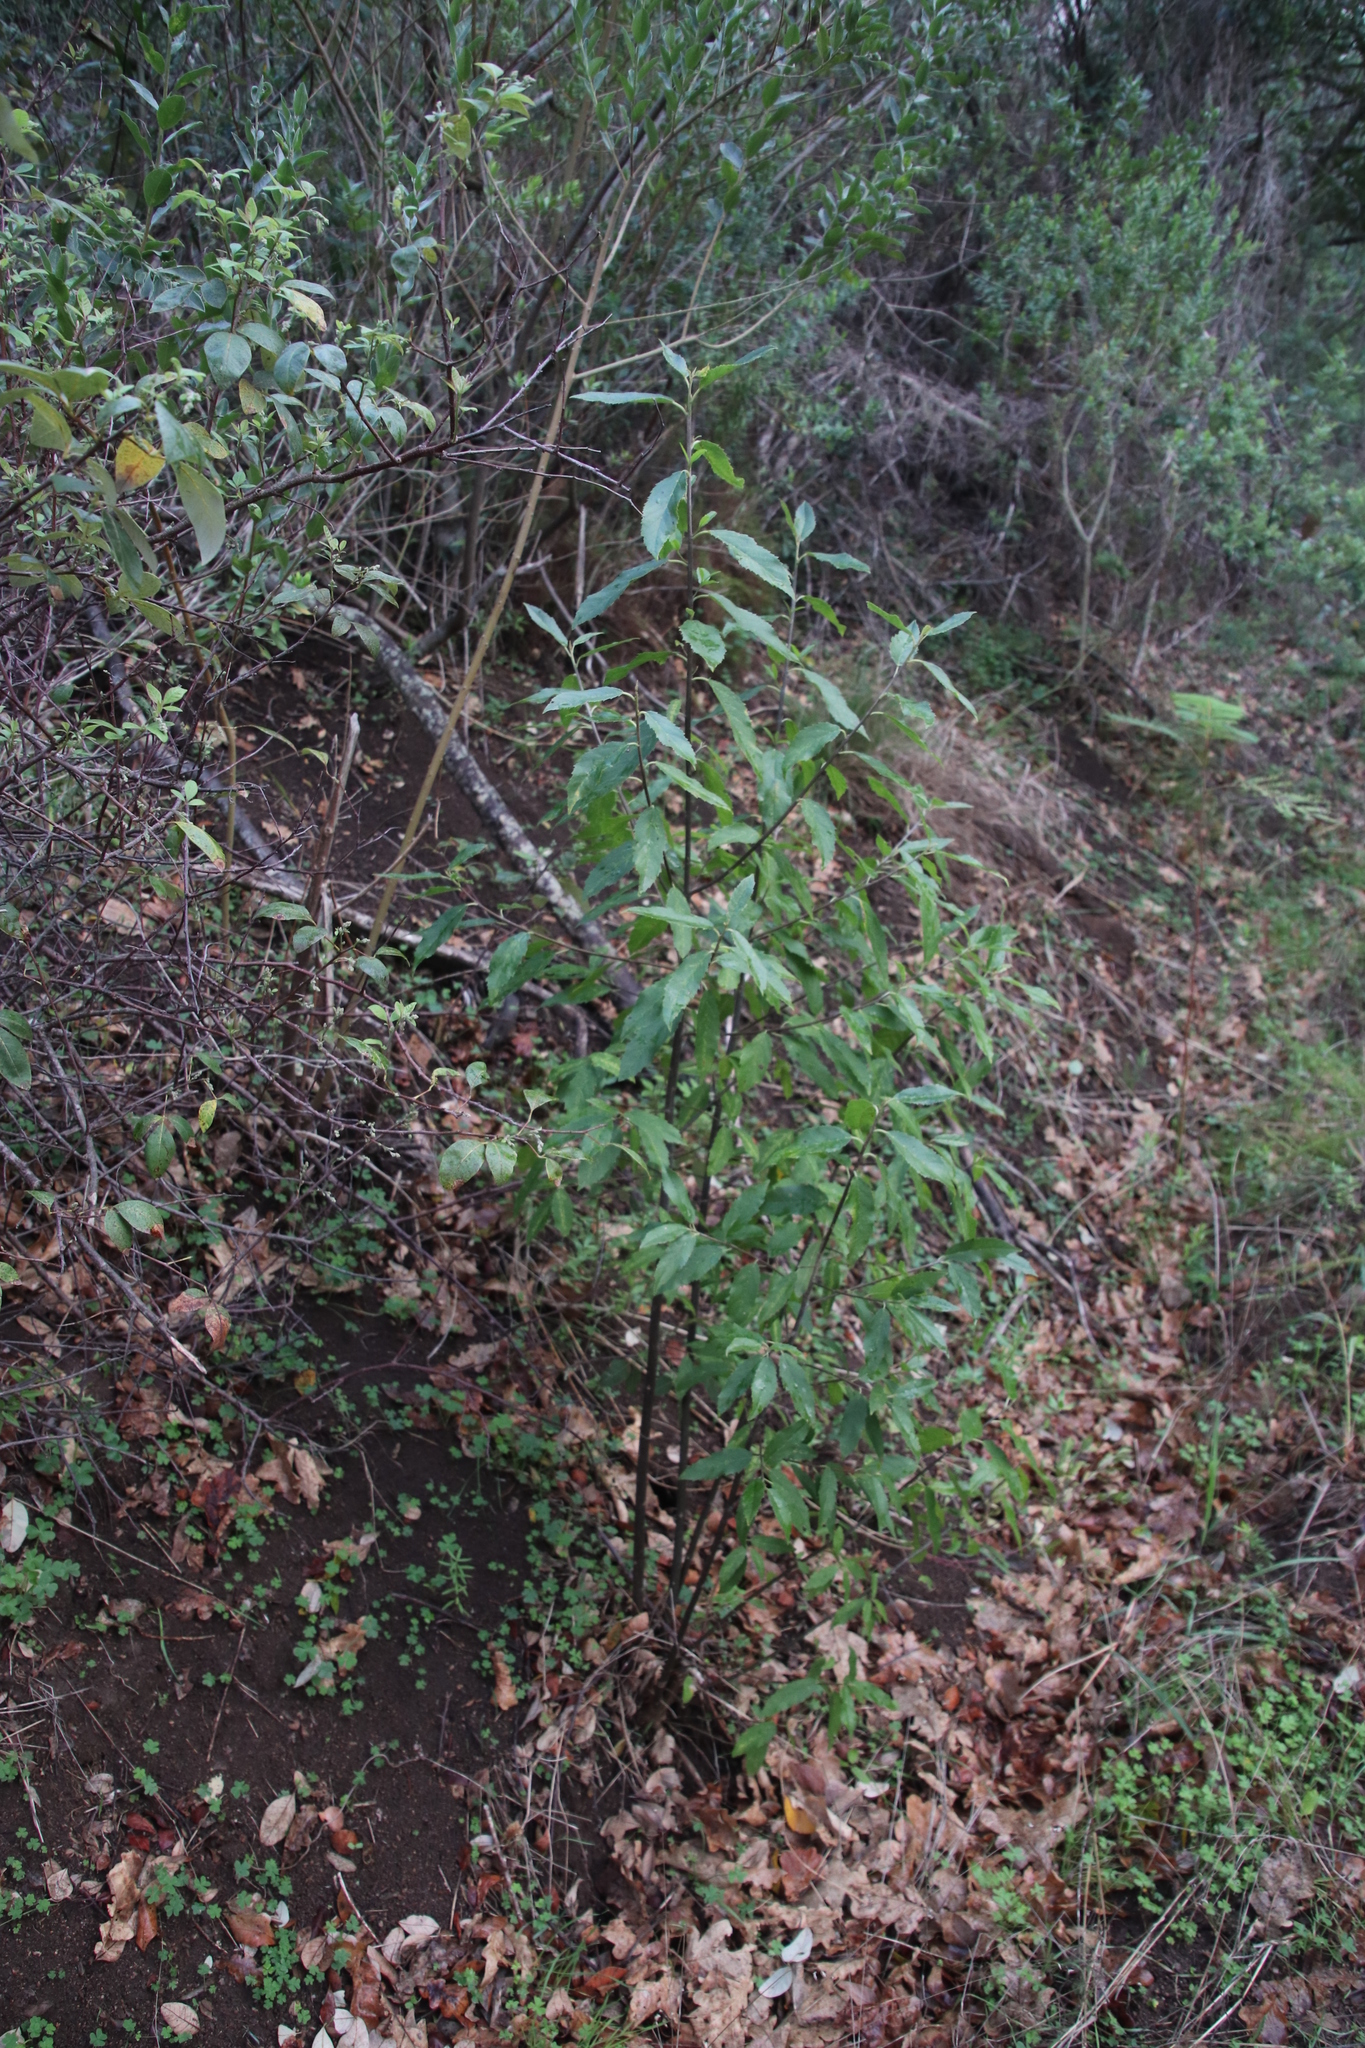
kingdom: Plantae
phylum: Tracheophyta
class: Magnoliopsida
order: Malpighiales
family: Achariaceae
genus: Kiggelaria
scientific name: Kiggelaria africana
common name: Wild peach
